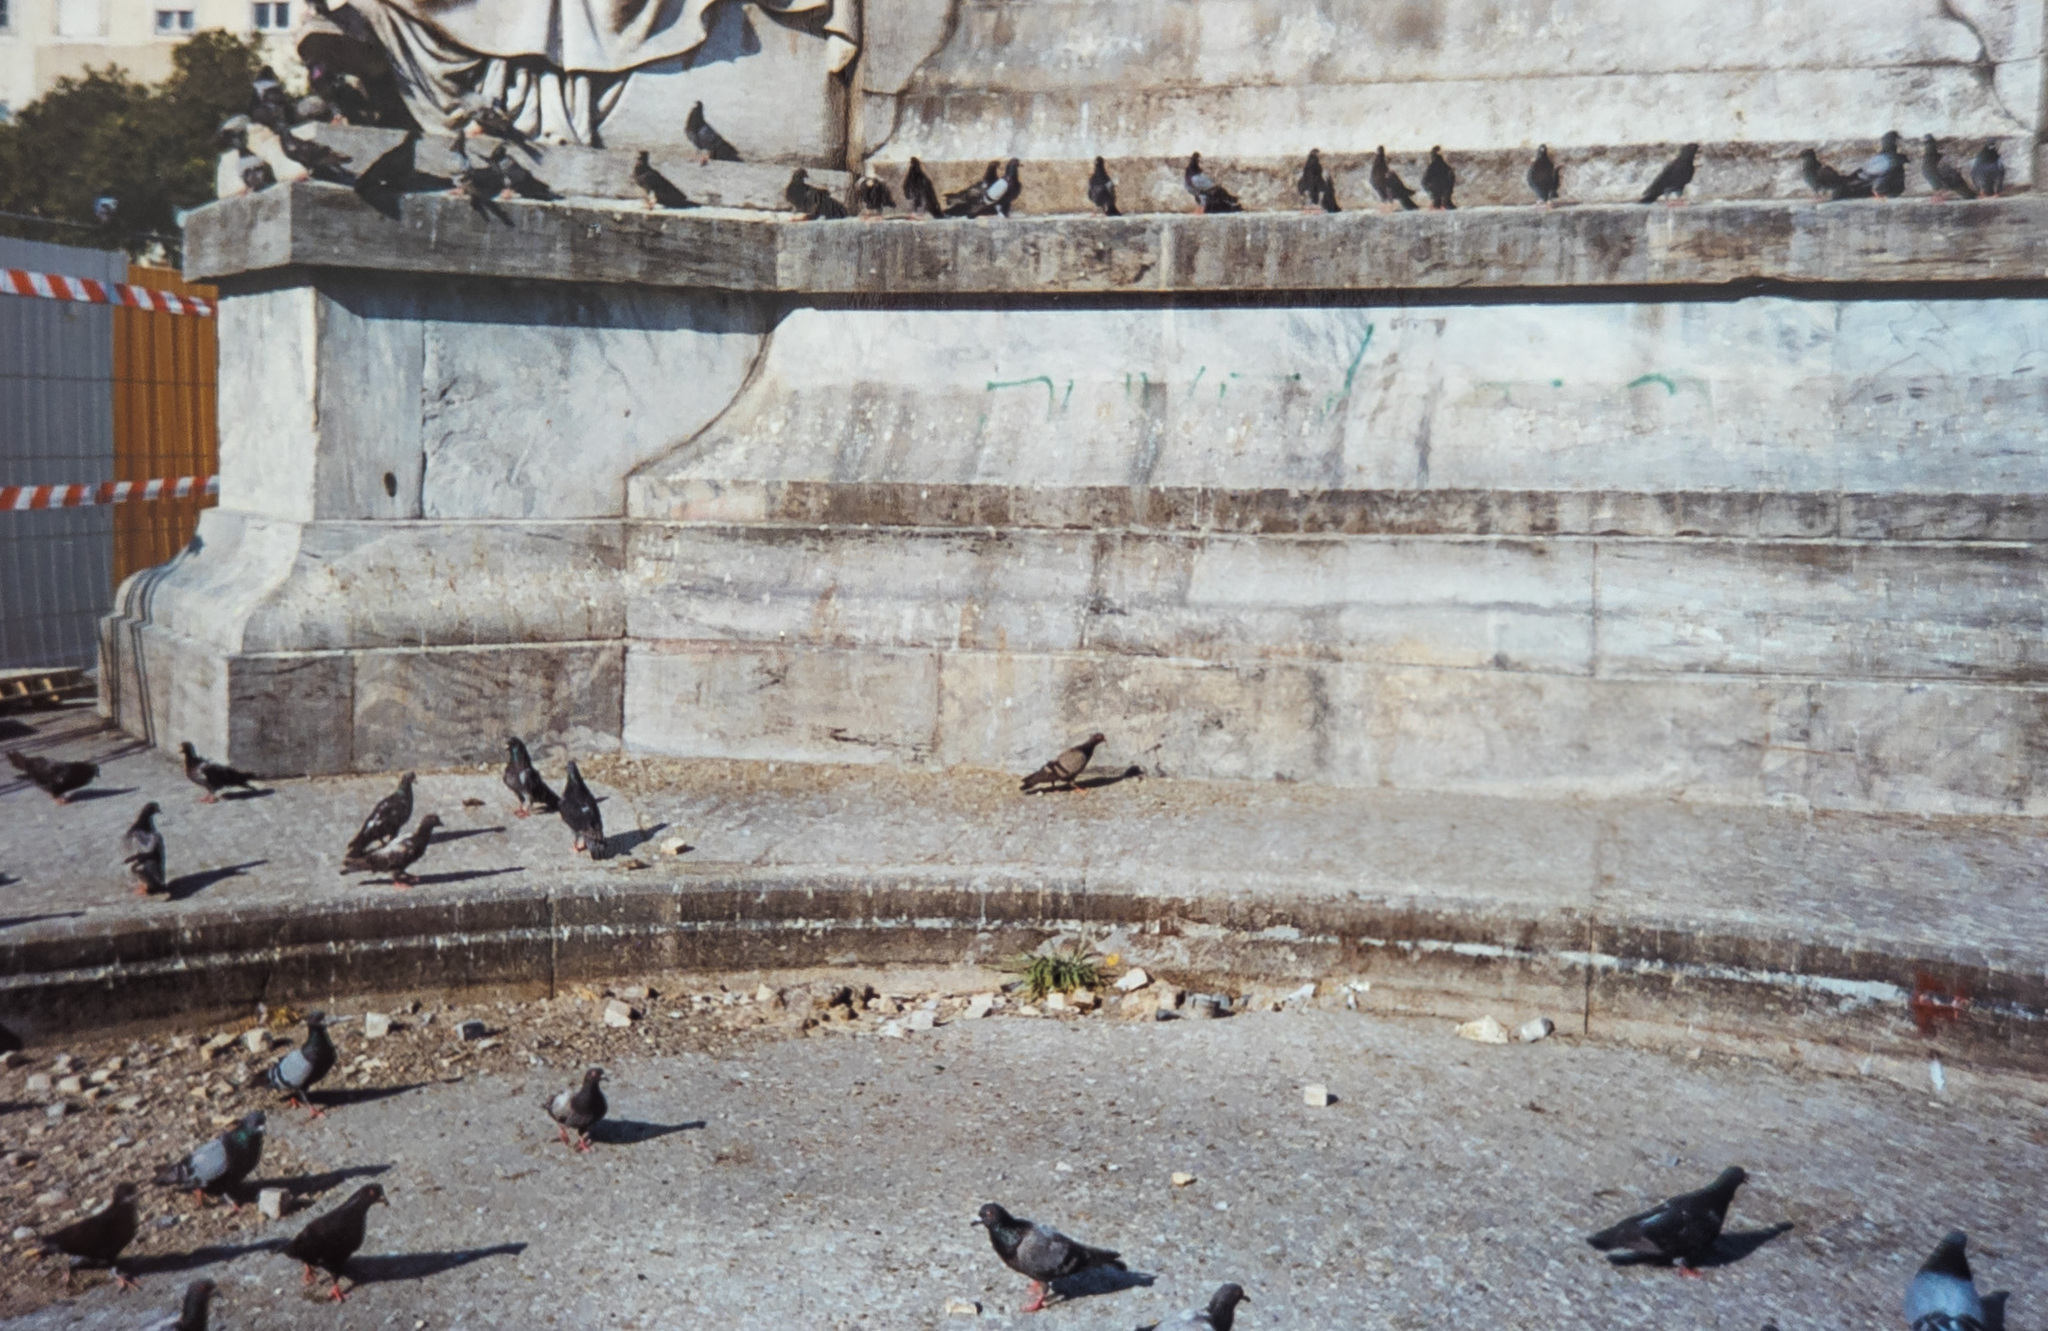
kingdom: Animalia
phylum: Chordata
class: Aves
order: Columbiformes
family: Columbidae
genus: Columba
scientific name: Columba livia
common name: Rock pigeon
